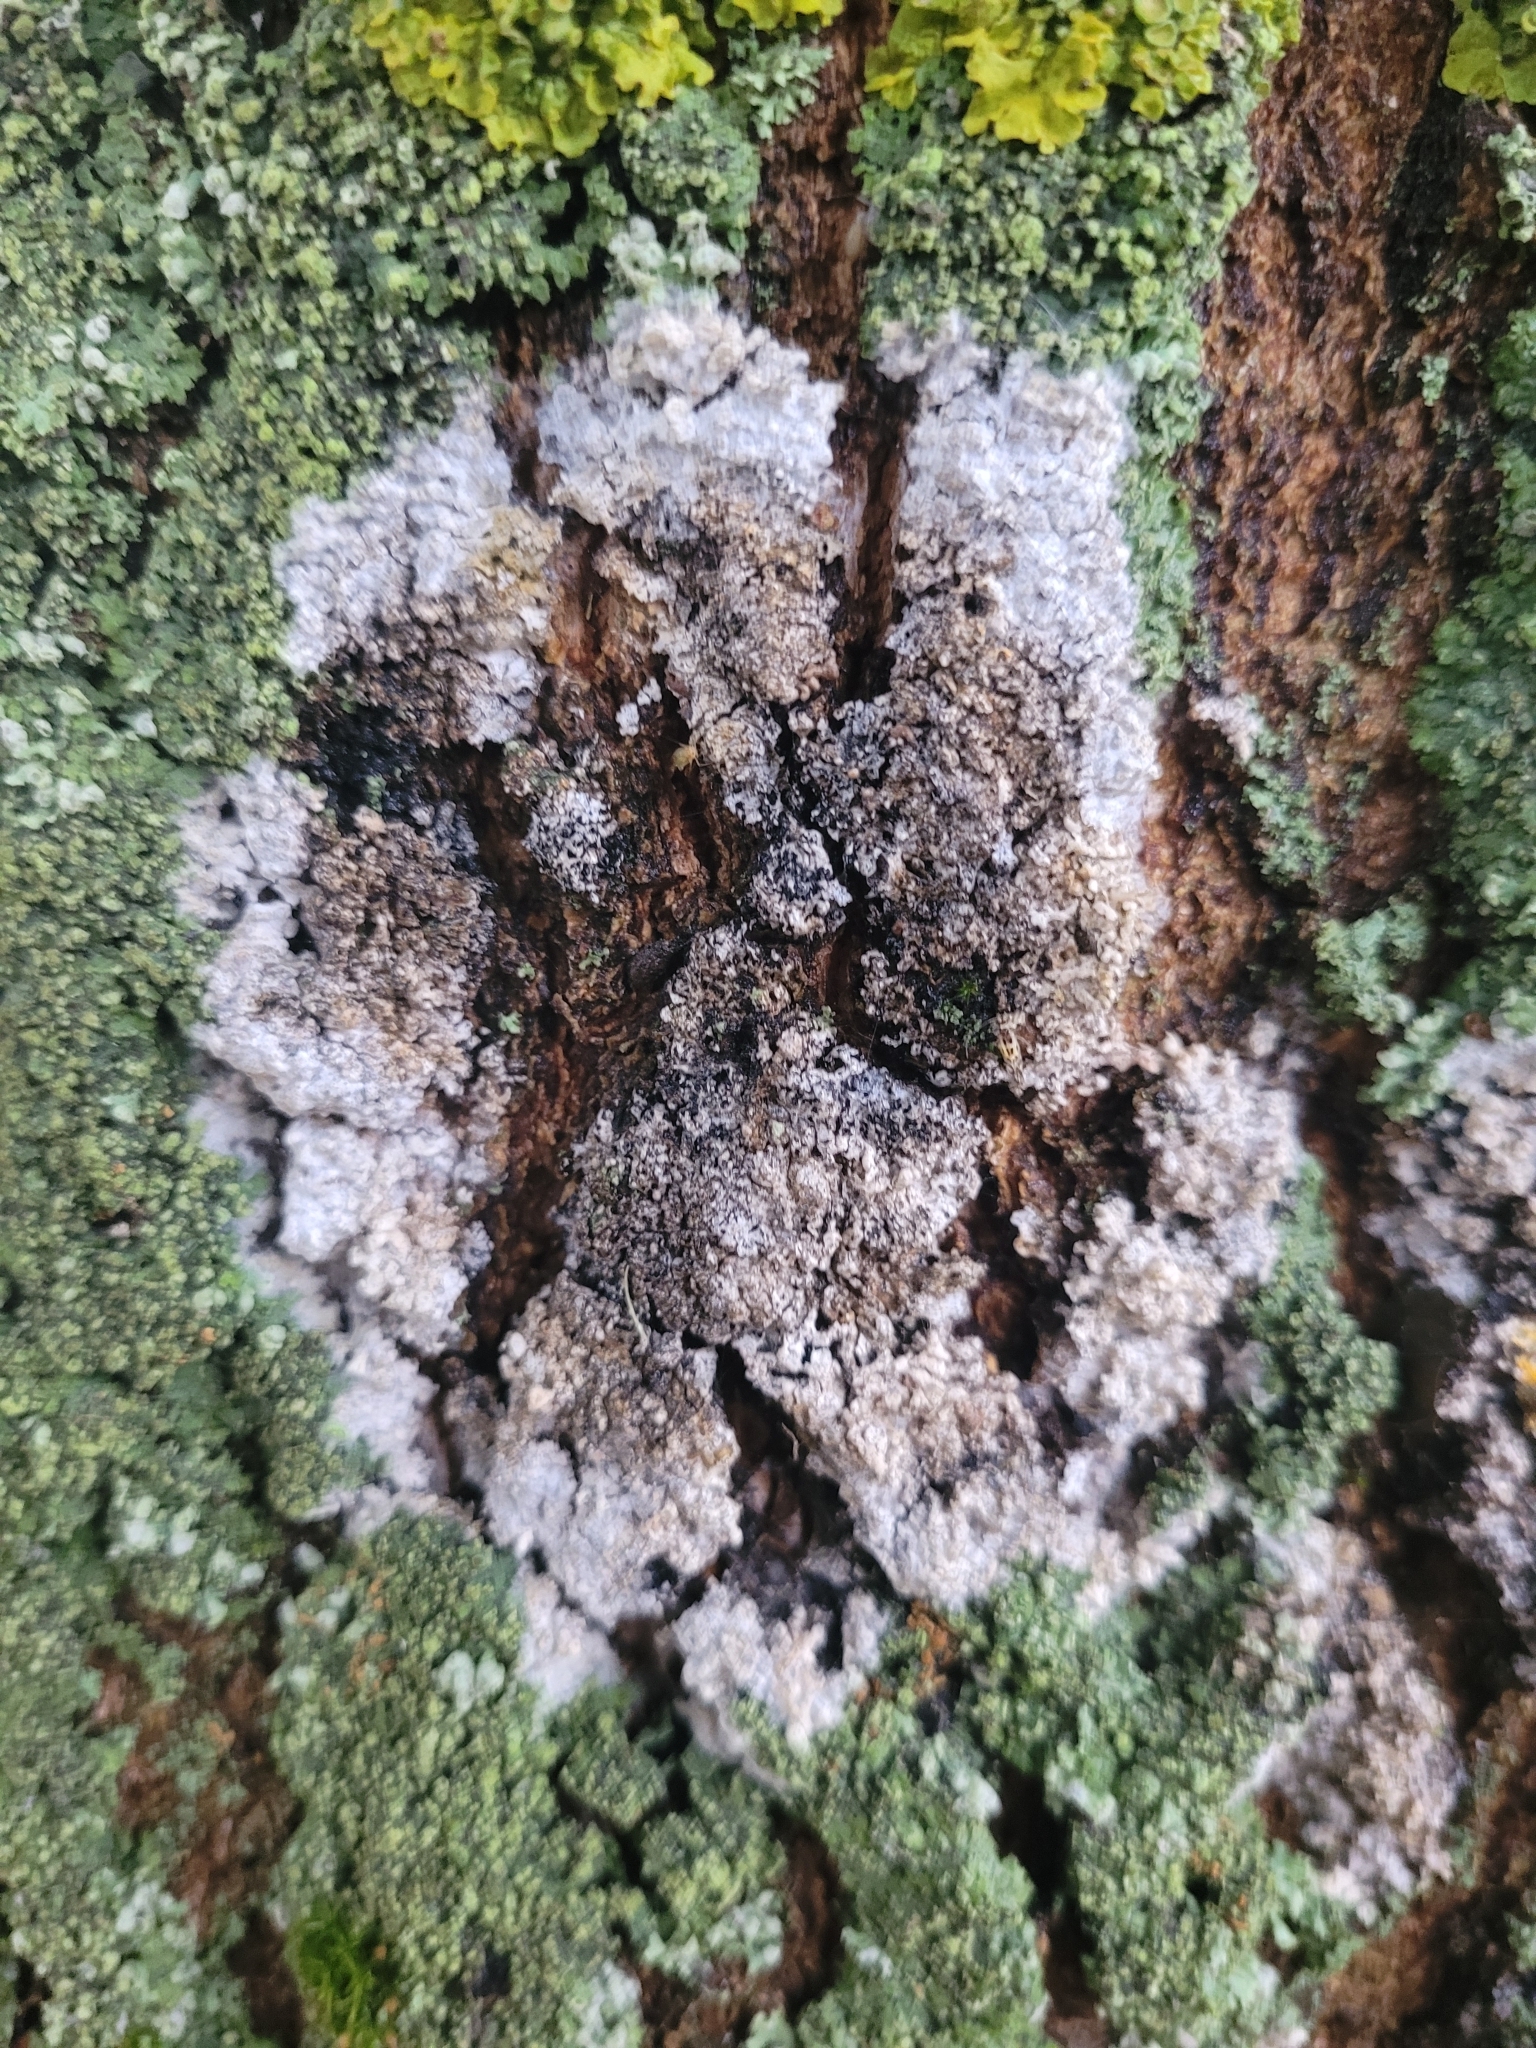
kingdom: Fungi
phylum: Basidiomycota
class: Agaricomycetes
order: Atheliales
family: Atheliaceae
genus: Athelia
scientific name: Athelia arachnoidea
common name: Candelabra duster
